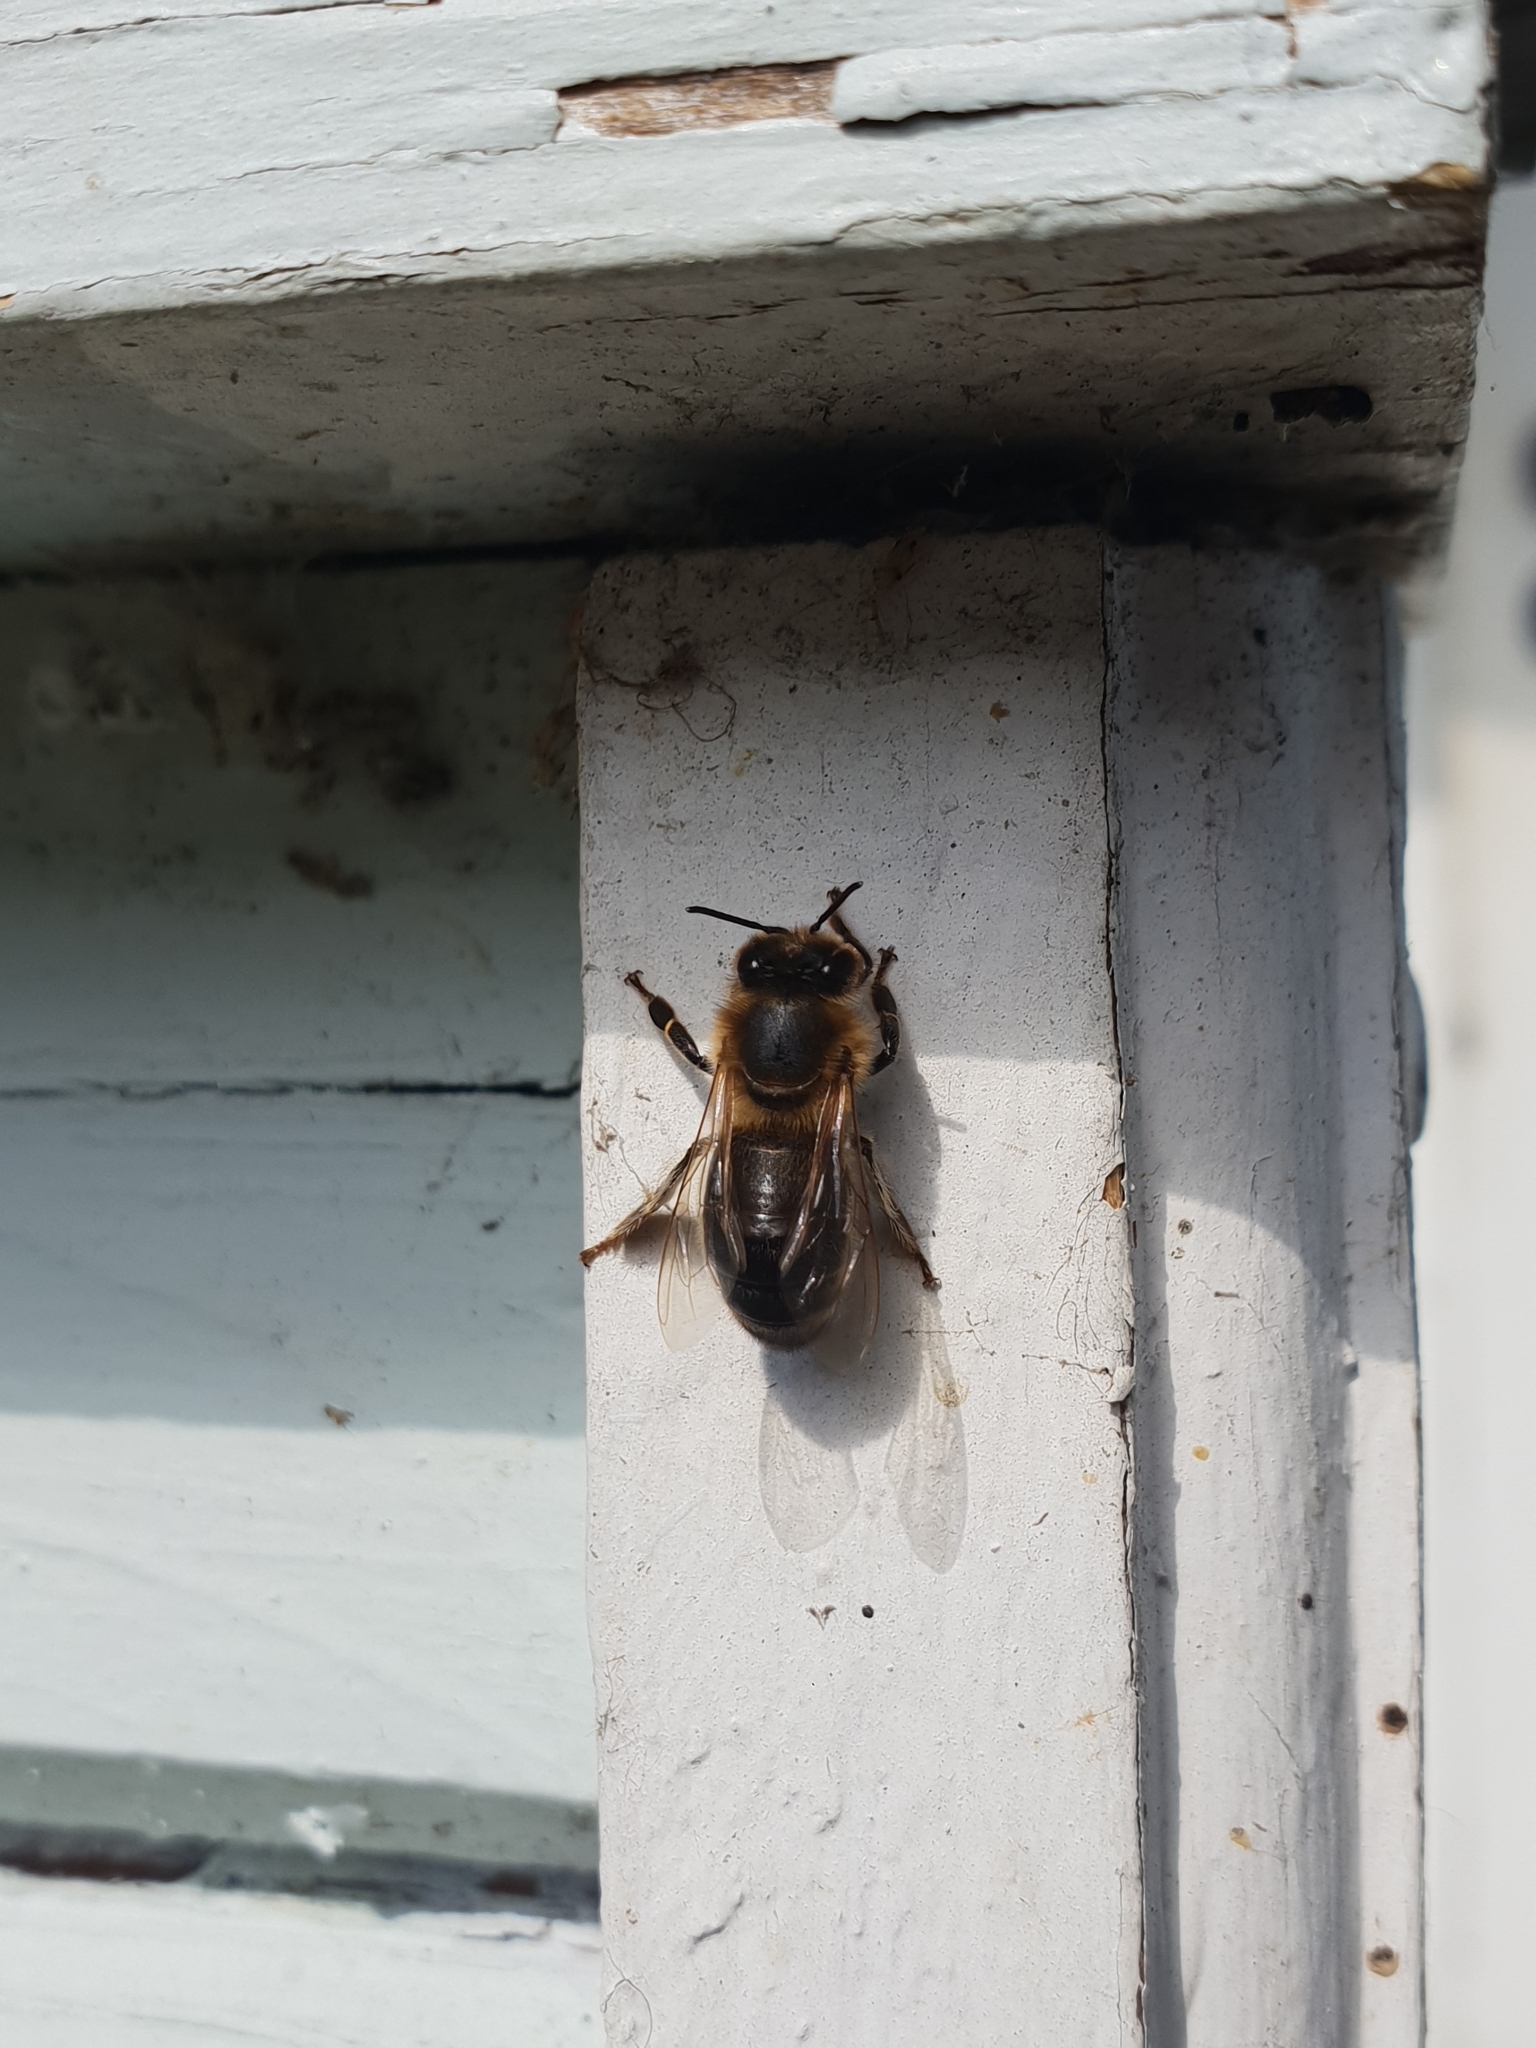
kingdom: Animalia
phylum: Arthropoda
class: Insecta
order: Hymenoptera
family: Apidae
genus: Apis
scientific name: Apis mellifera
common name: Honey bee
